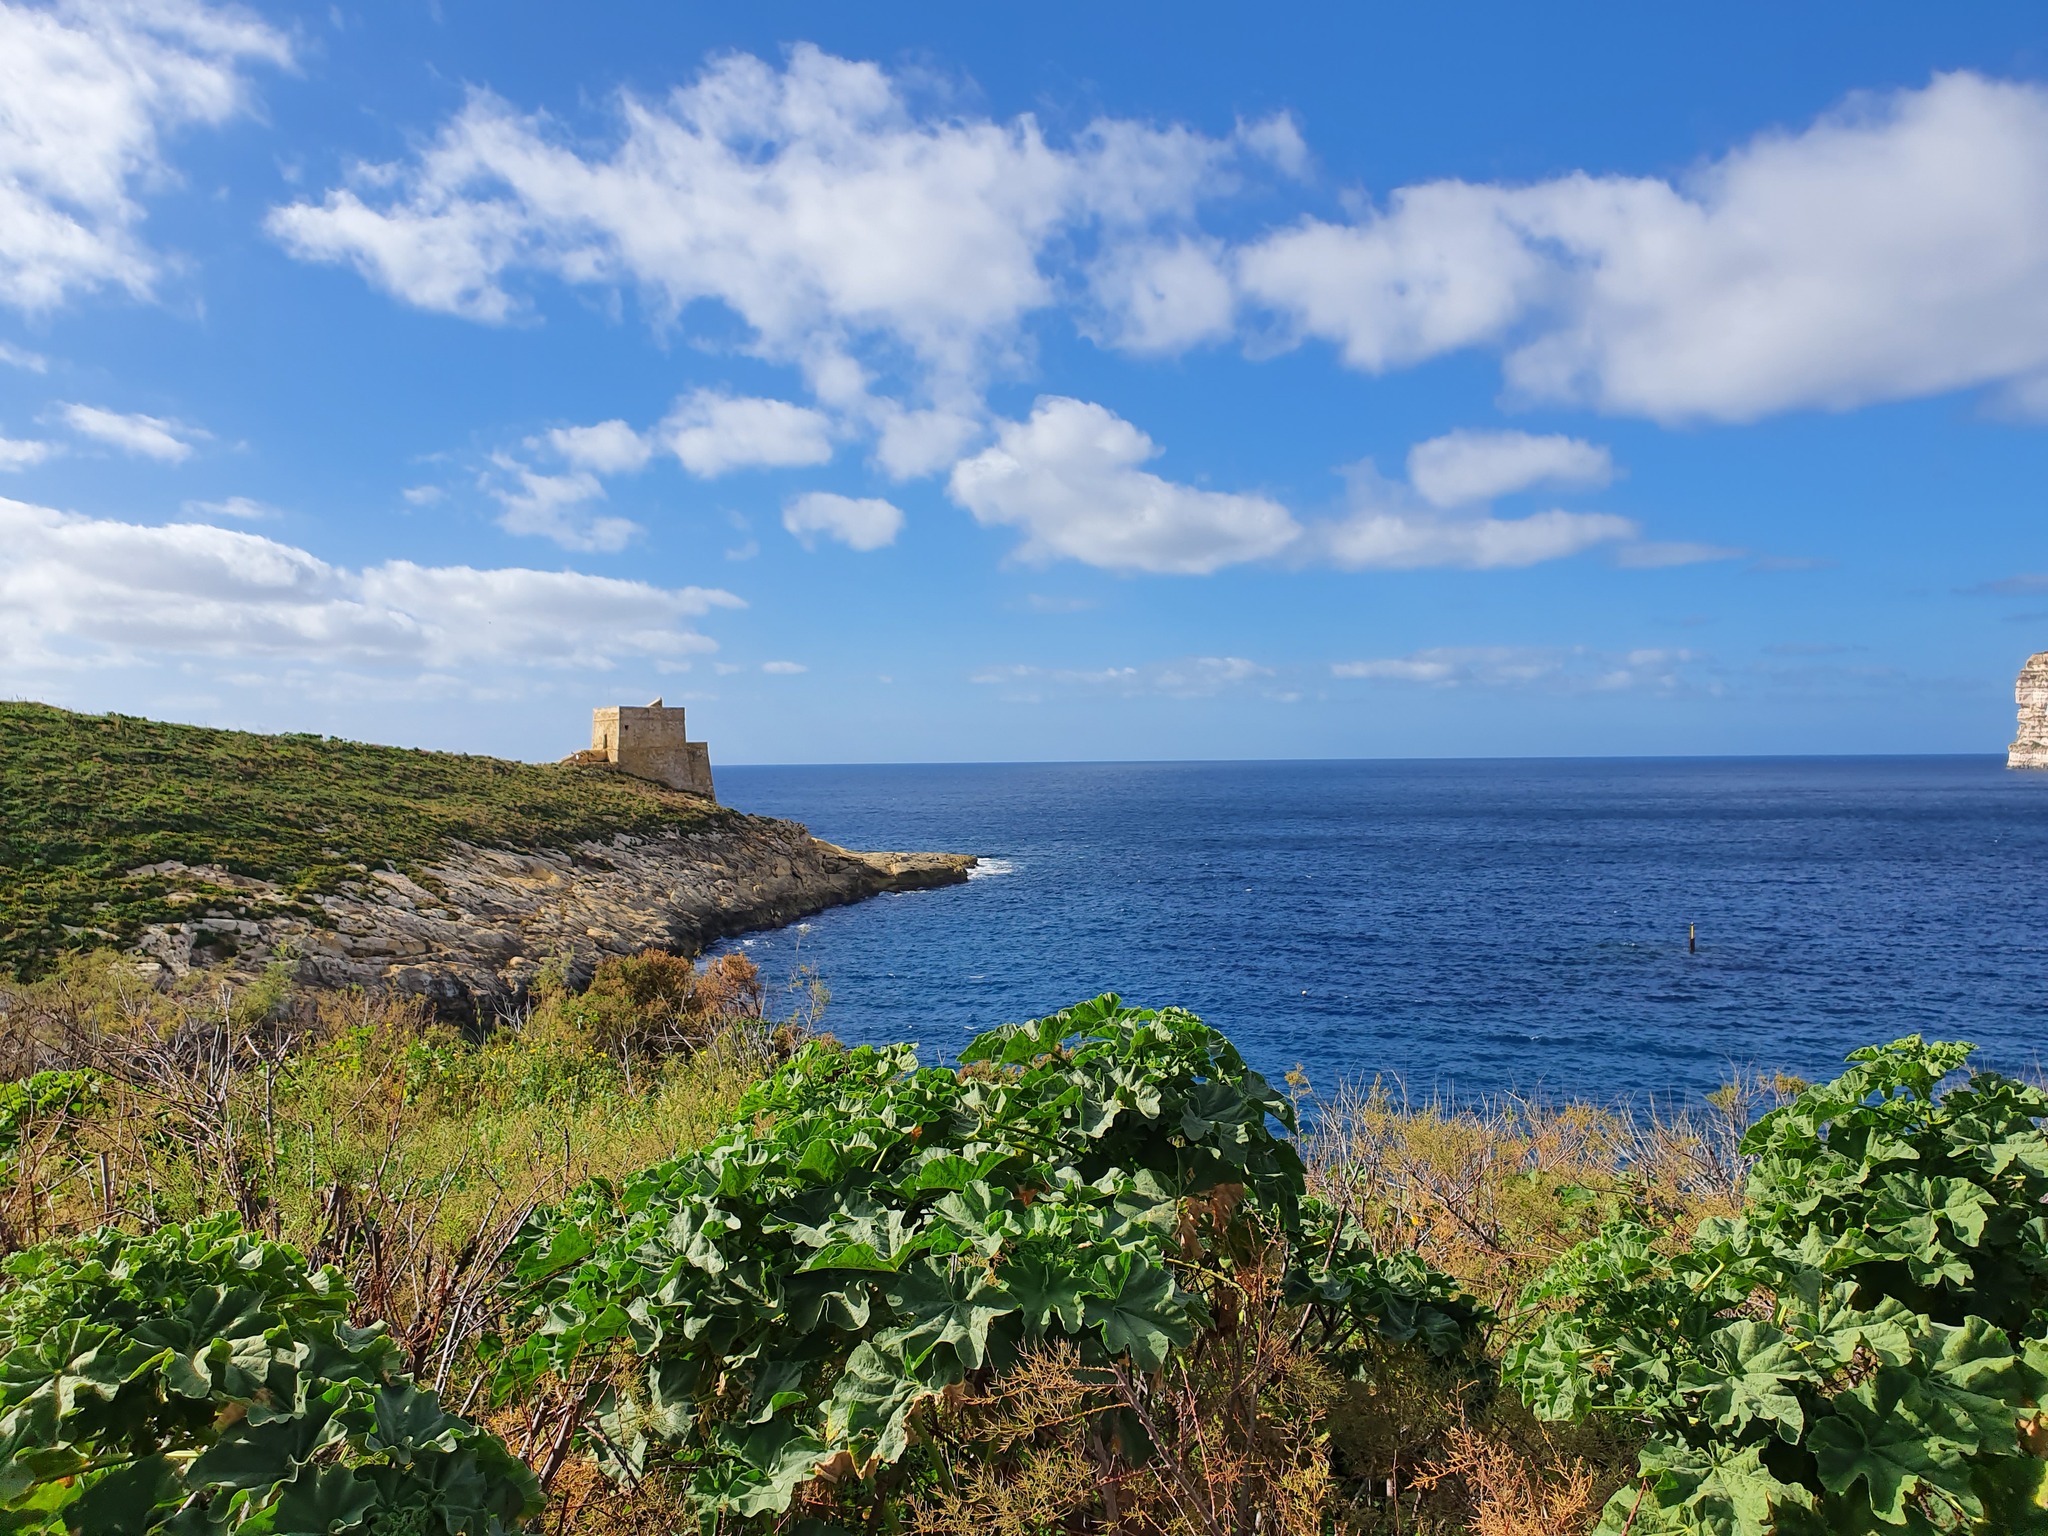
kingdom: Plantae
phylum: Tracheophyta
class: Magnoliopsida
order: Malvales
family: Malvaceae
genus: Malva
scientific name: Malva arborea
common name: Tree mallow
